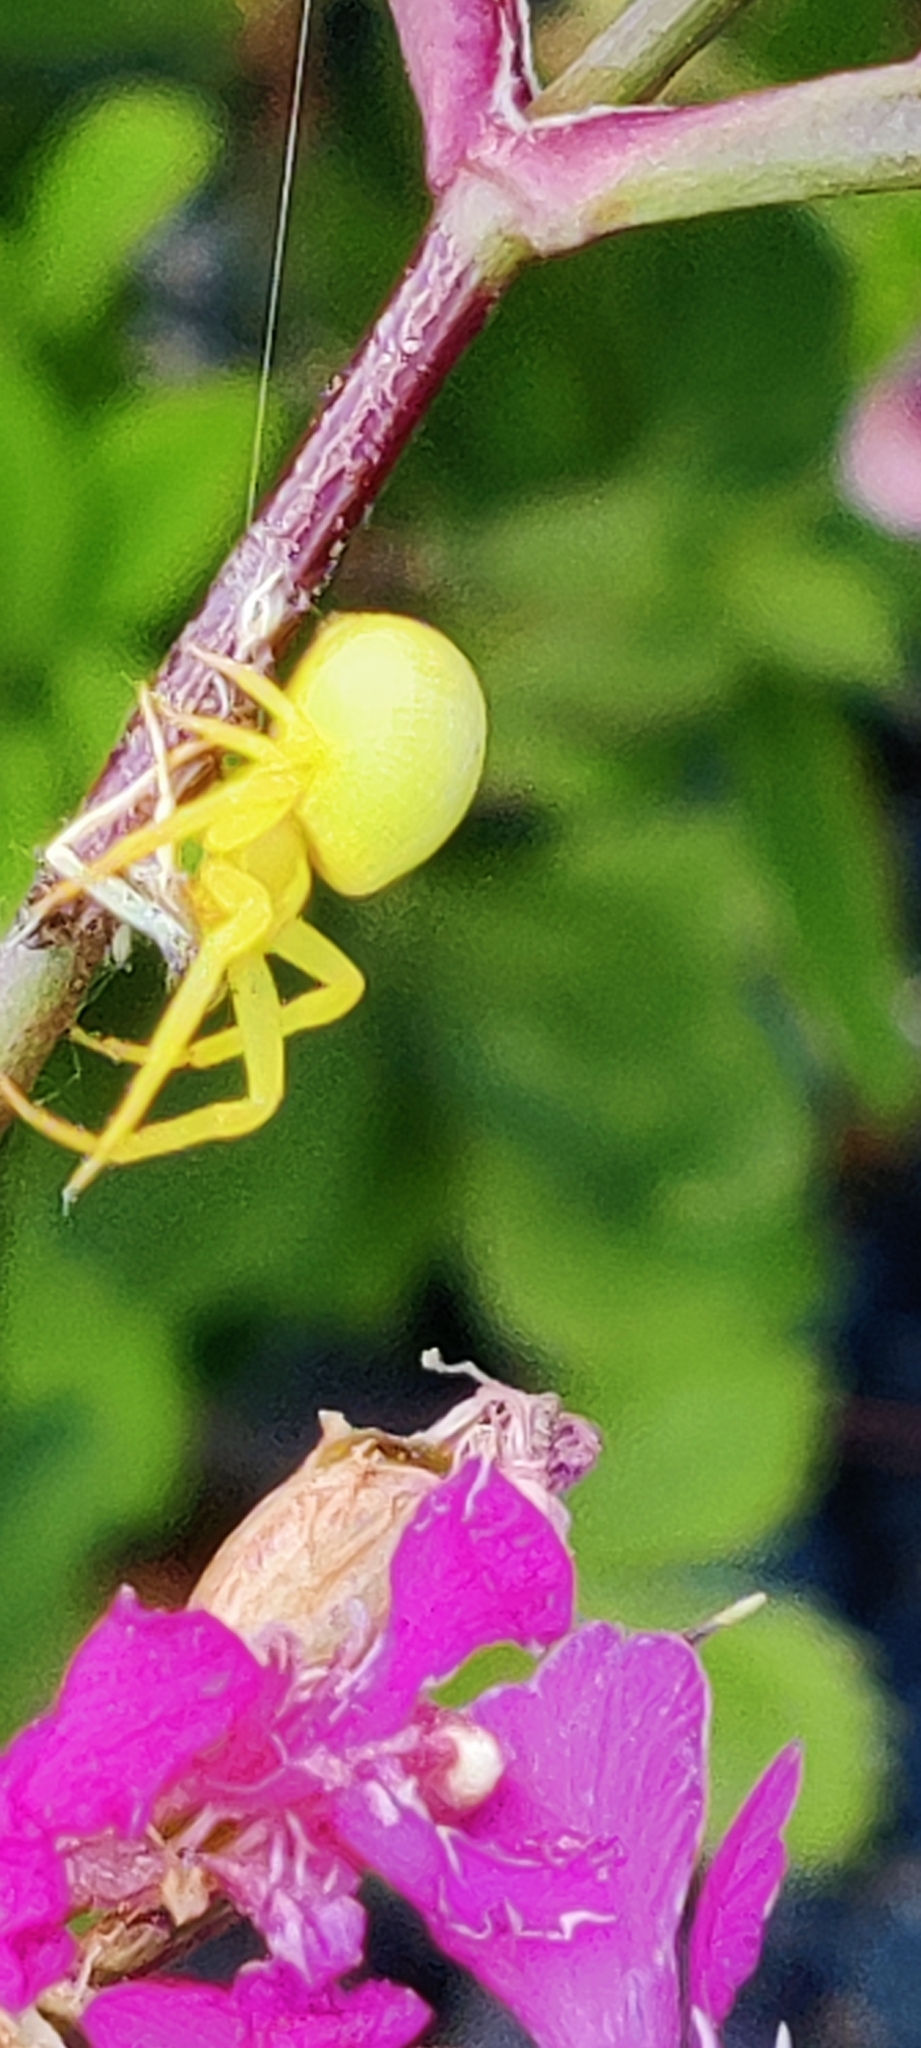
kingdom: Animalia
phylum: Arthropoda
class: Arachnida
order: Araneae
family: Thomisidae
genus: Misumena
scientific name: Misumena vatia
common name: Goldenrod crab spider
